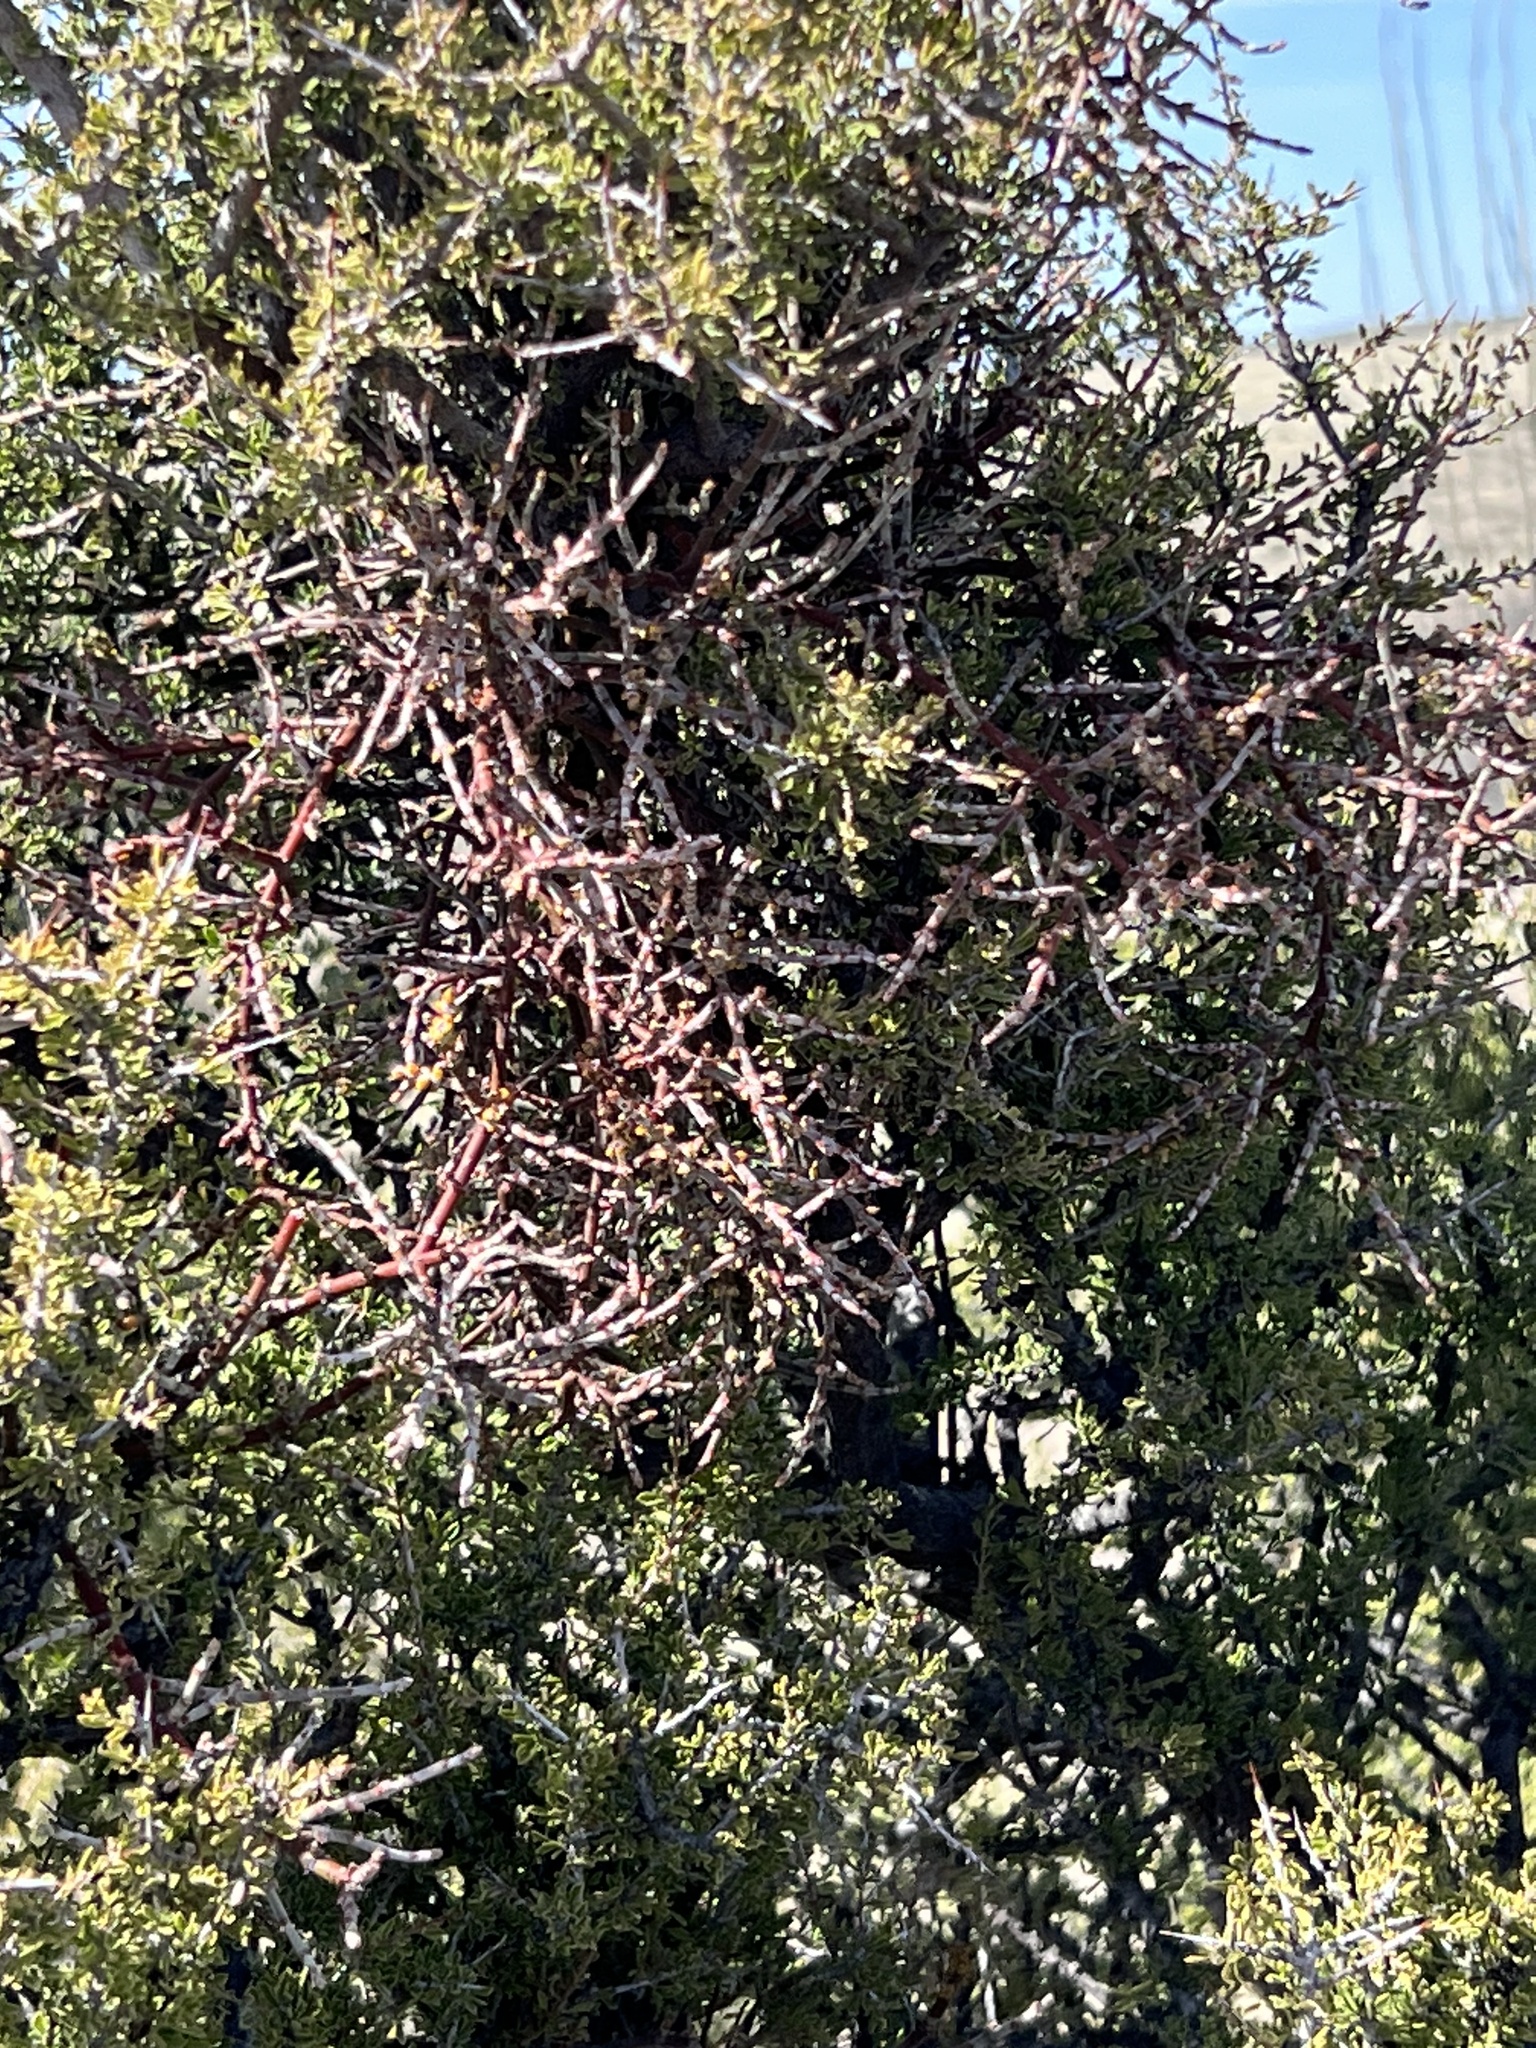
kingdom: Plantae
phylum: Tracheophyta
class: Magnoliopsida
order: Santalales
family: Viscaceae
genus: Phoradendron
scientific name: Phoradendron californicum
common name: Acacia mistletoe
